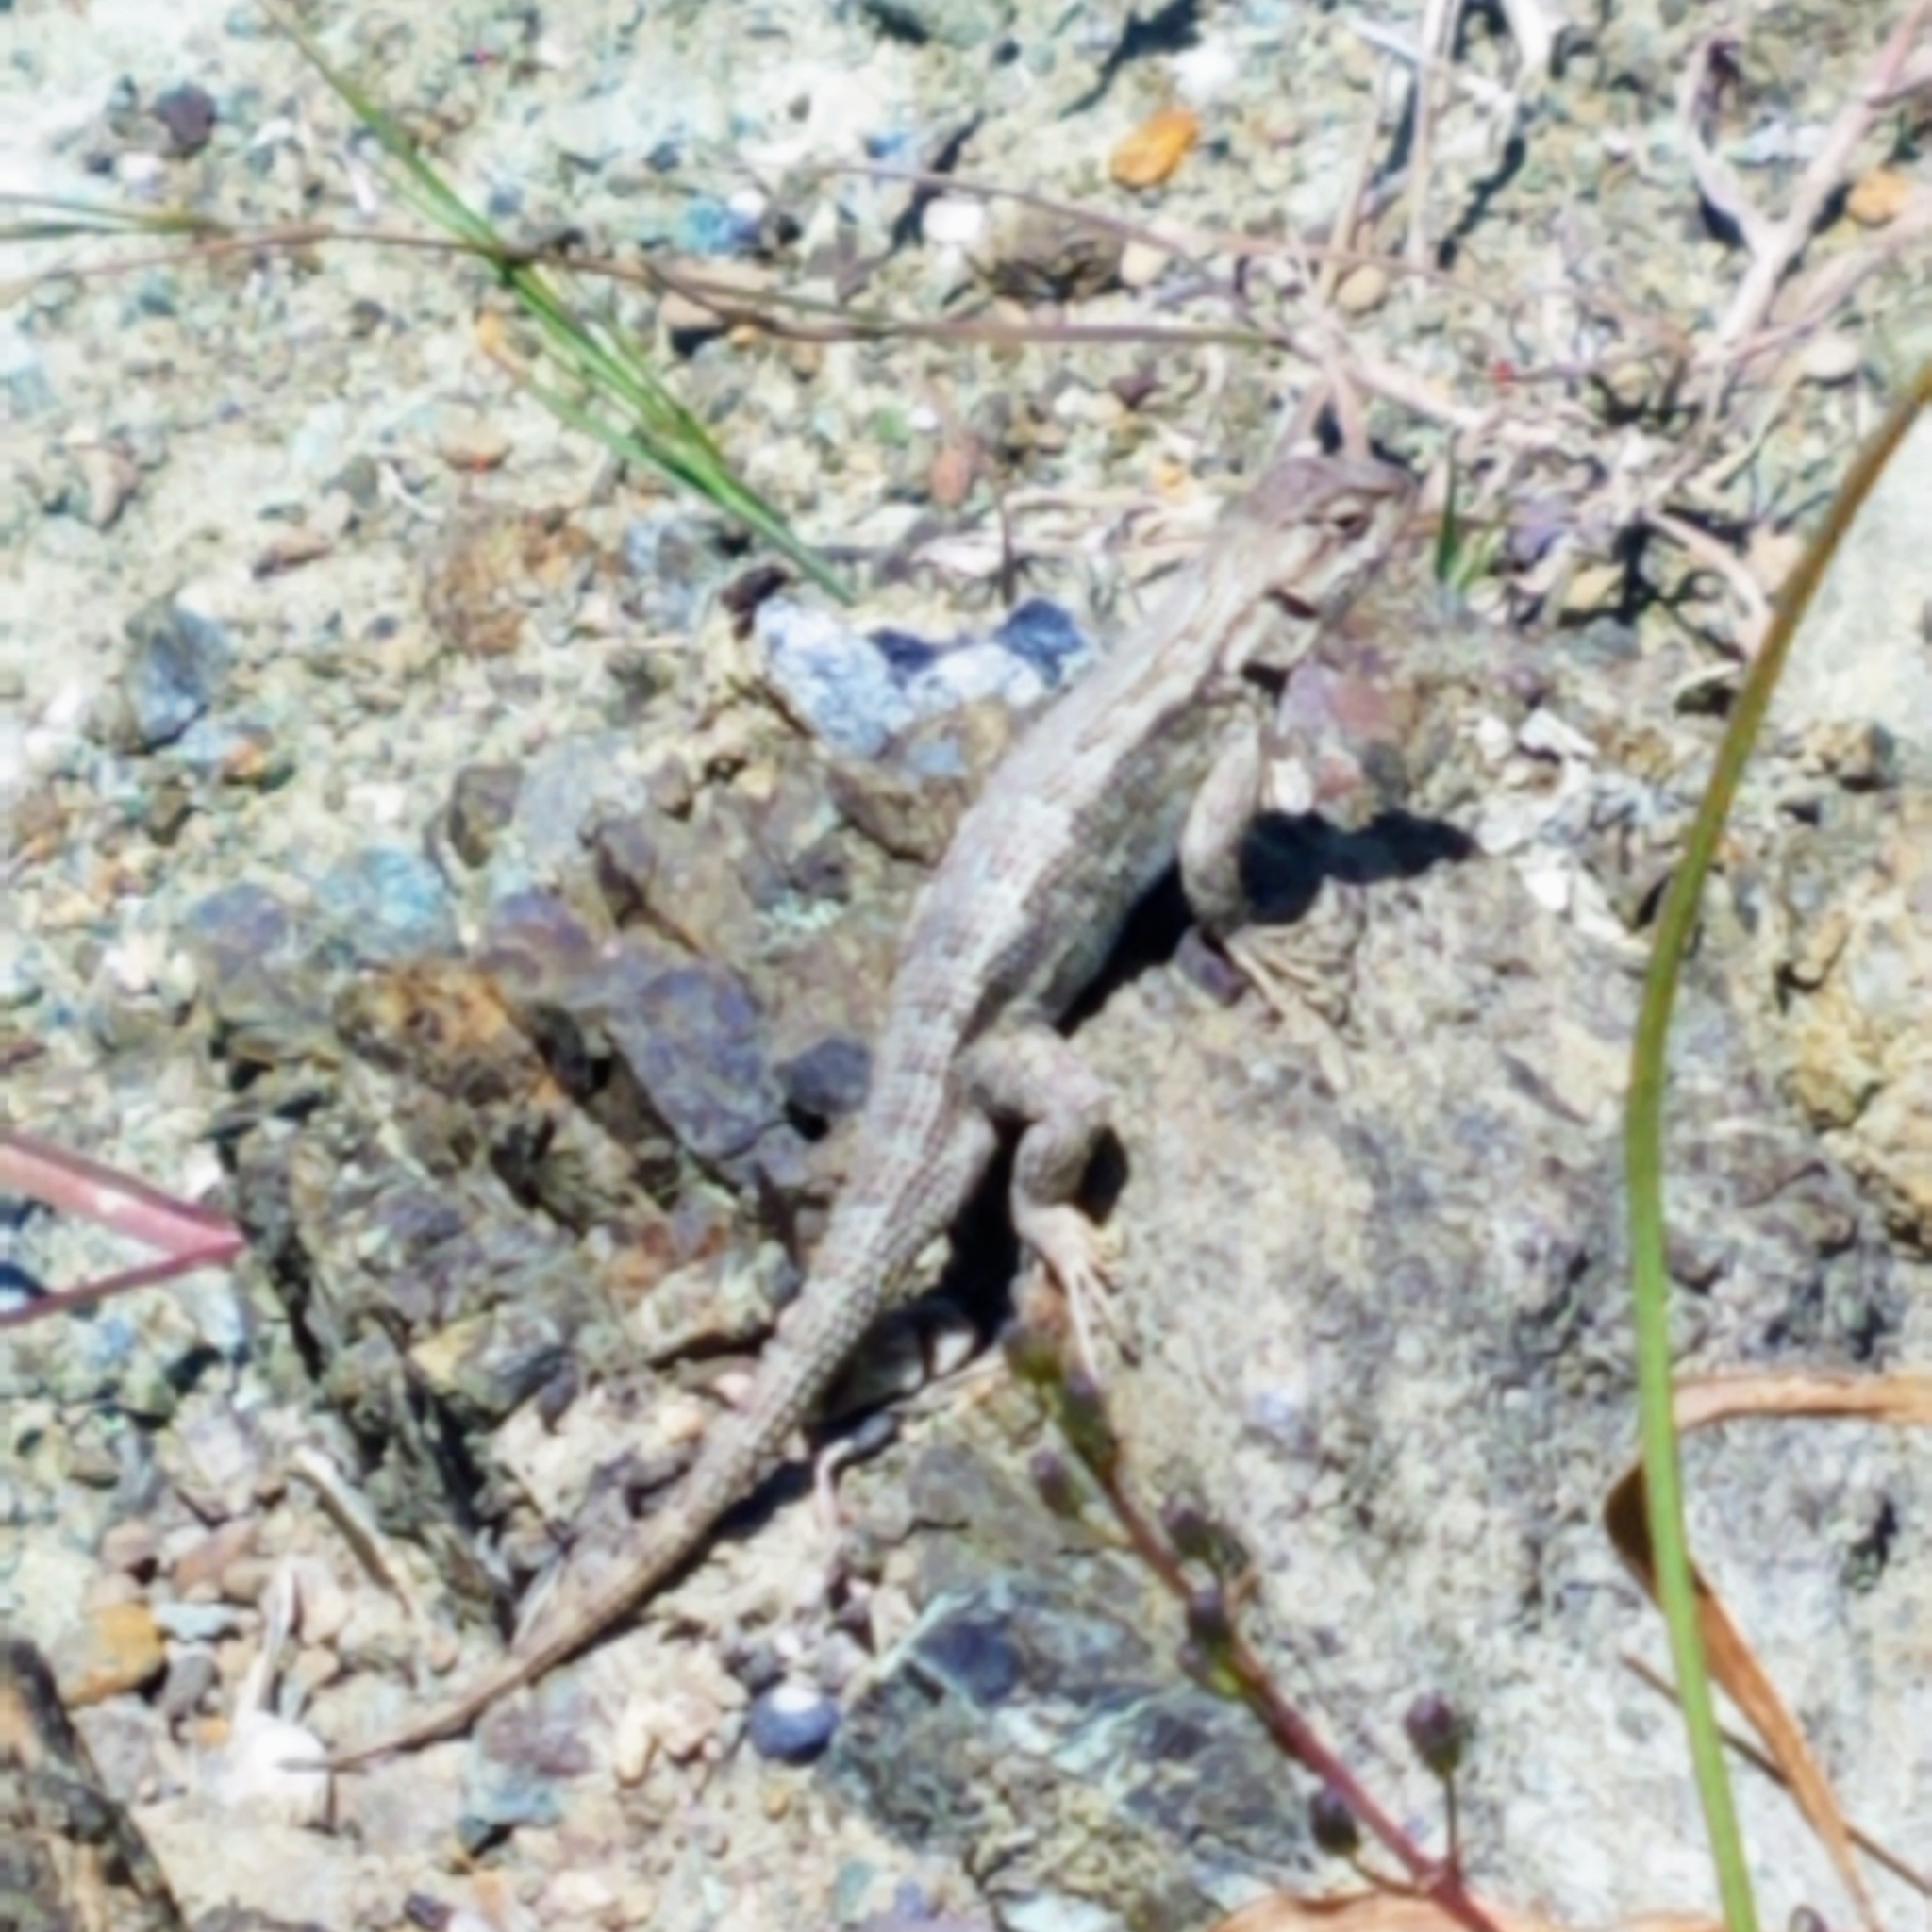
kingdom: Animalia
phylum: Chordata
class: Squamata
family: Phrynosomatidae
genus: Sceloporus
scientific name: Sceloporus occidentalis
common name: Western fence lizard
